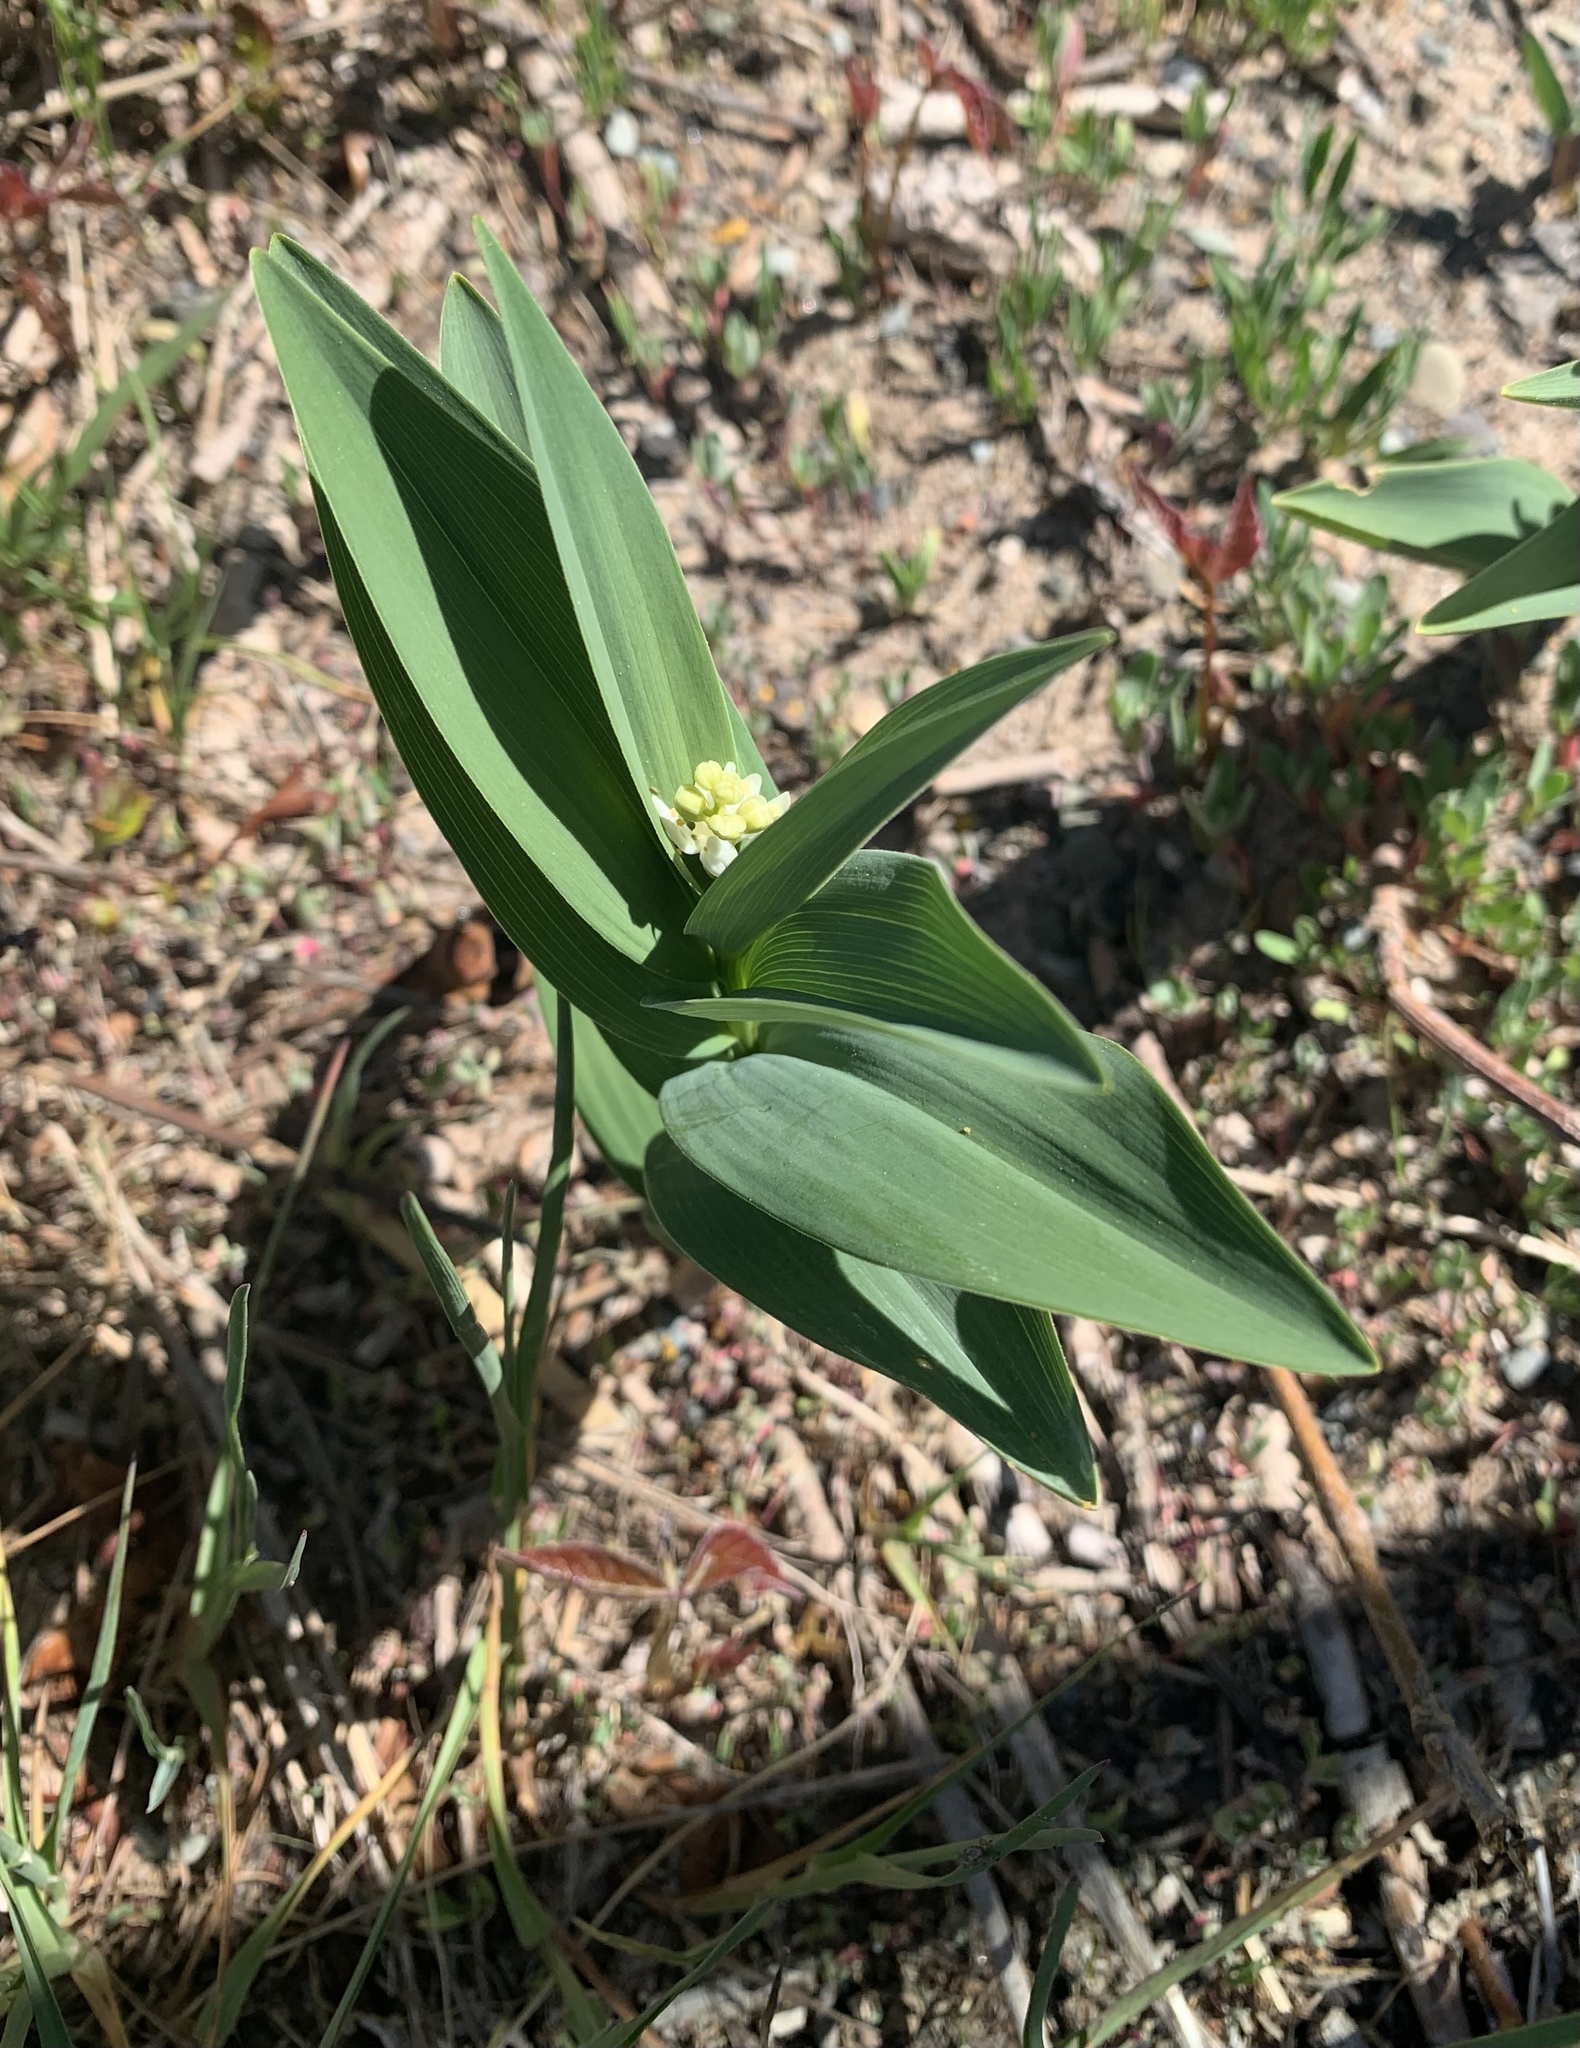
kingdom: Plantae
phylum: Tracheophyta
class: Liliopsida
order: Asparagales
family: Asparagaceae
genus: Maianthemum
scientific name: Maianthemum stellatum
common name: Little false solomon's seal
